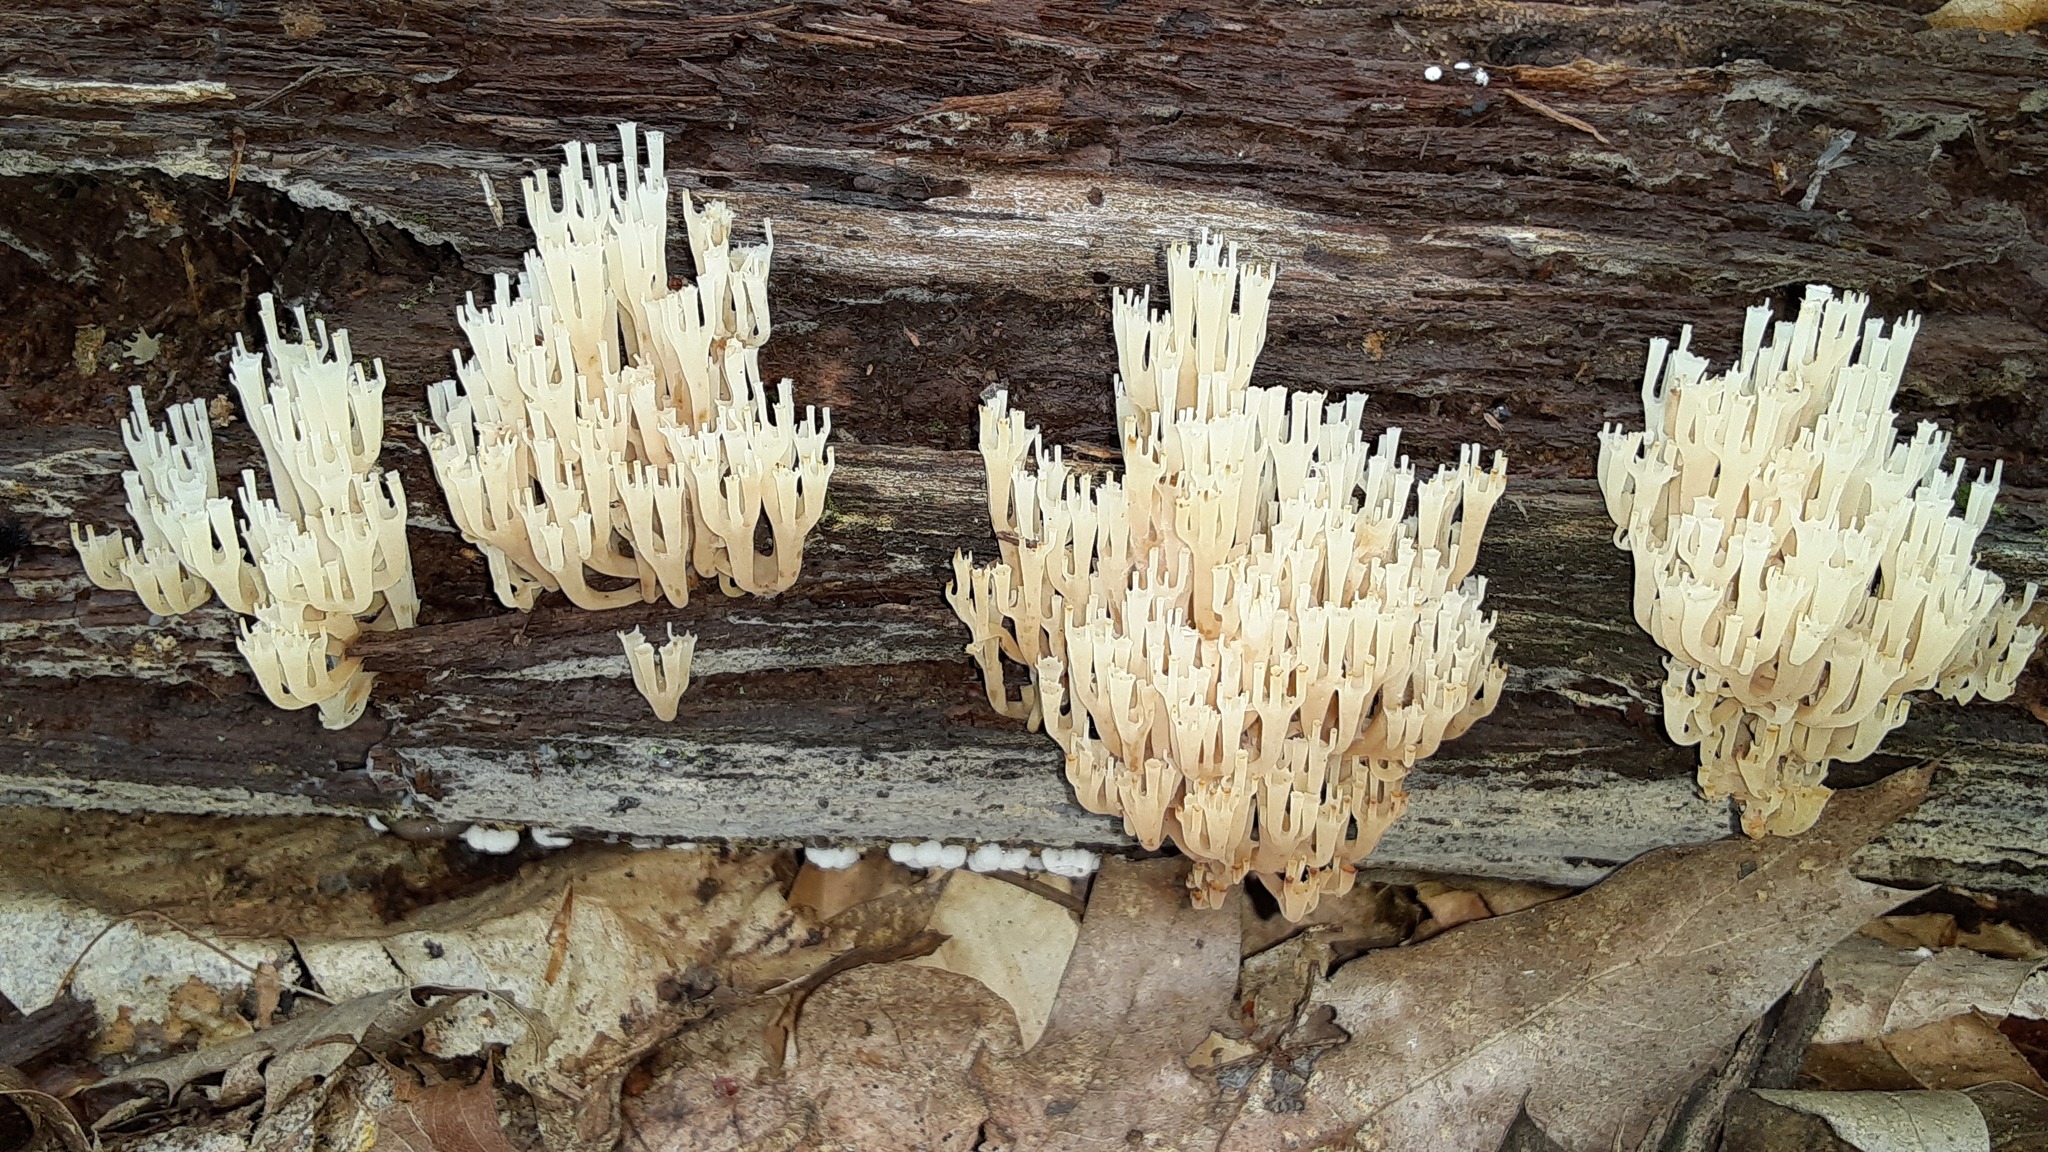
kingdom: Fungi
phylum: Basidiomycota
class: Agaricomycetes
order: Russulales
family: Auriscalpiaceae
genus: Artomyces
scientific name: Artomyces pyxidatus
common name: Crown-tipped coral fungus
